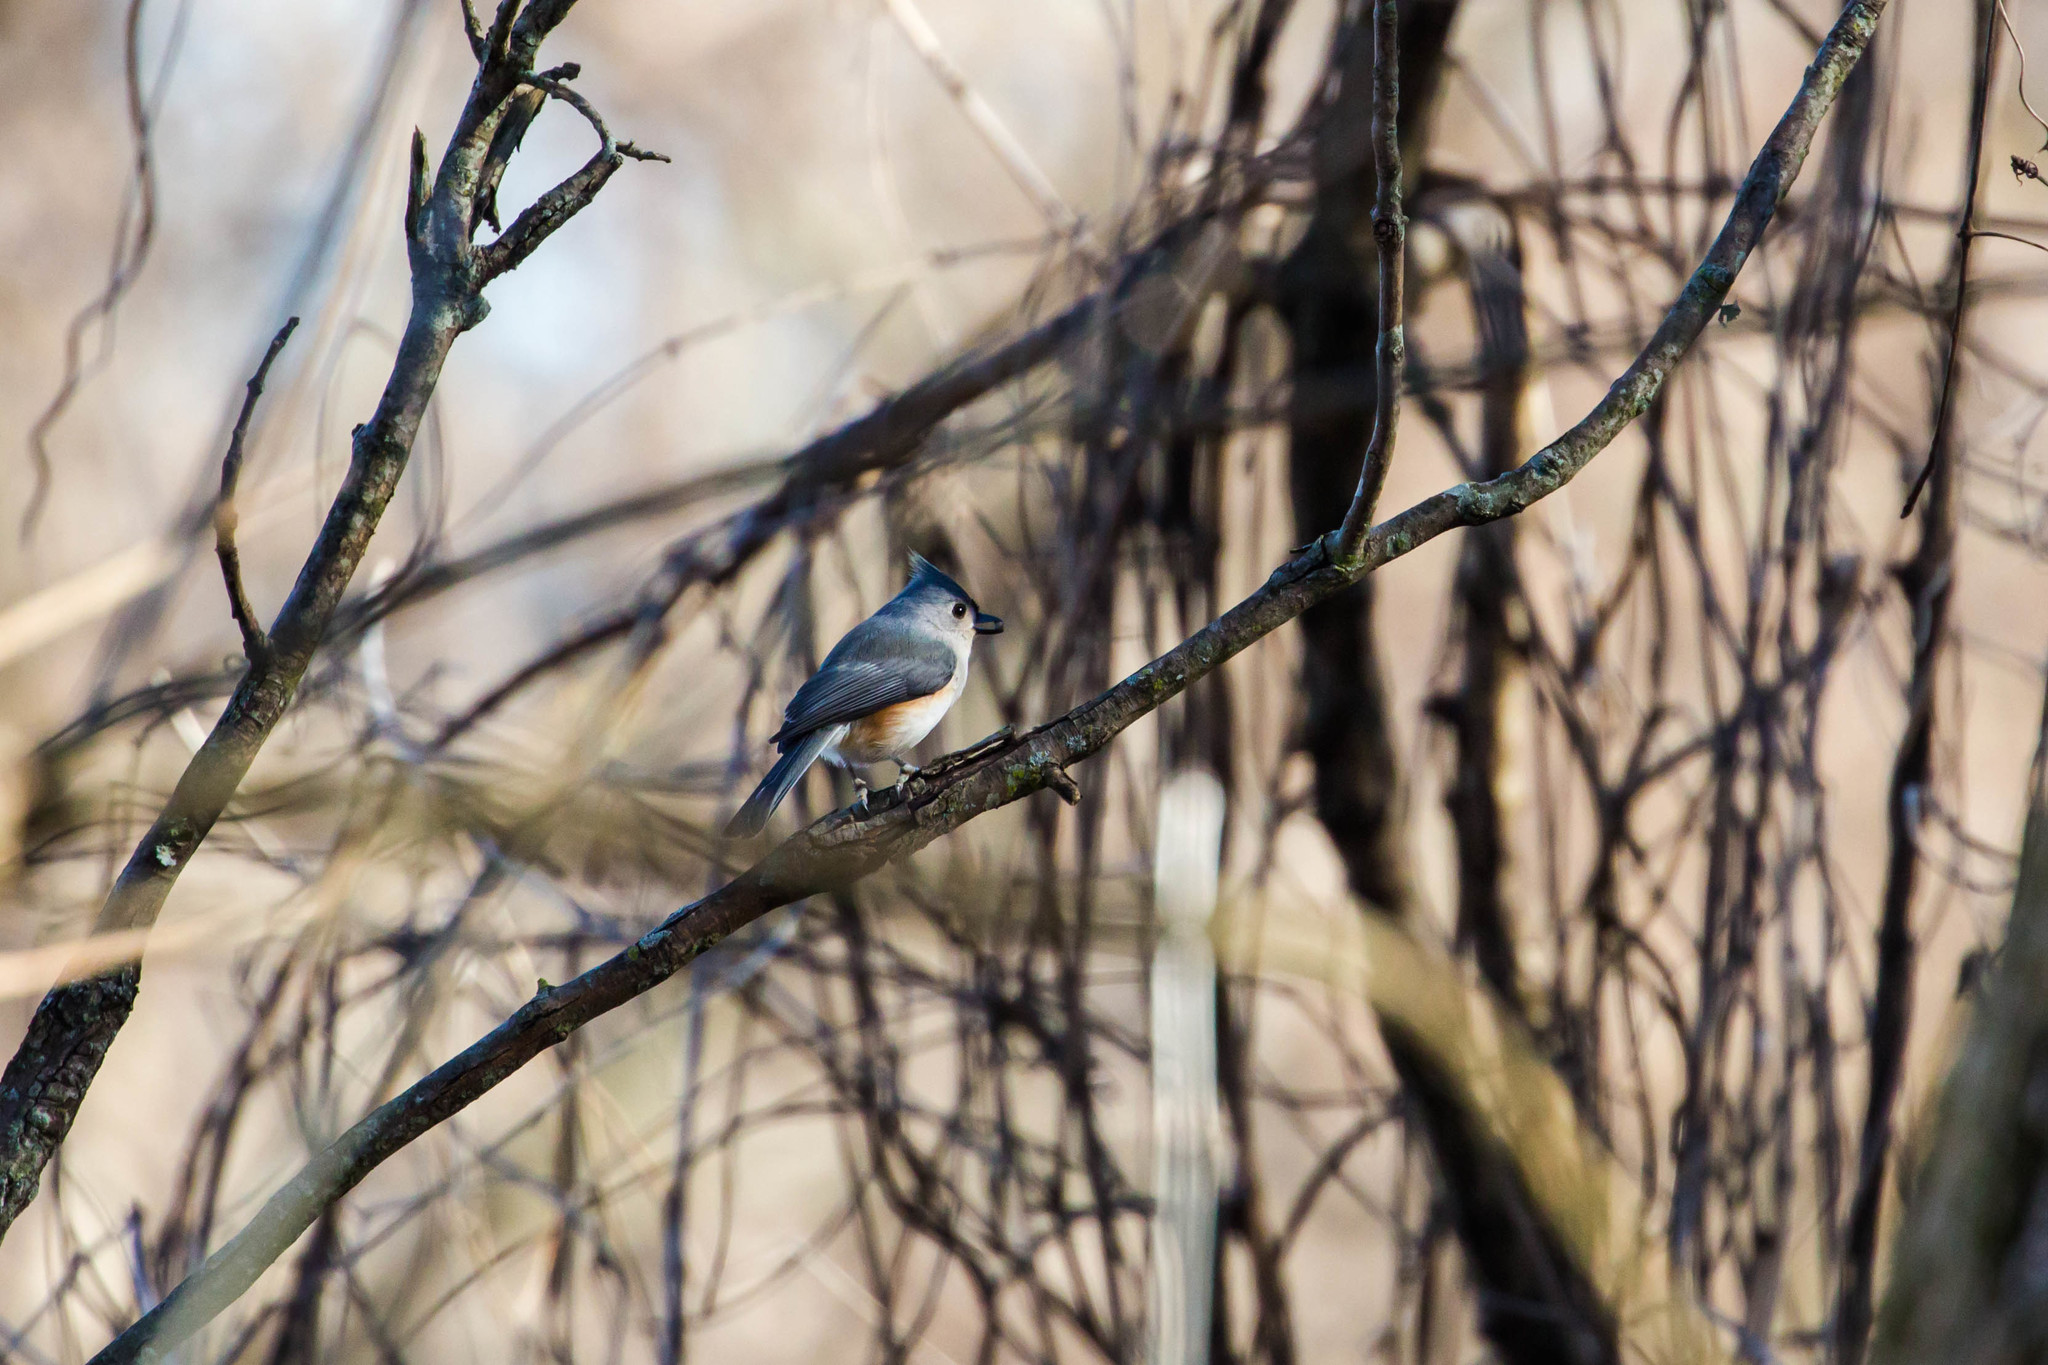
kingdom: Animalia
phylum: Chordata
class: Aves
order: Passeriformes
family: Paridae
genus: Baeolophus
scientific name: Baeolophus bicolor
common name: Tufted titmouse
